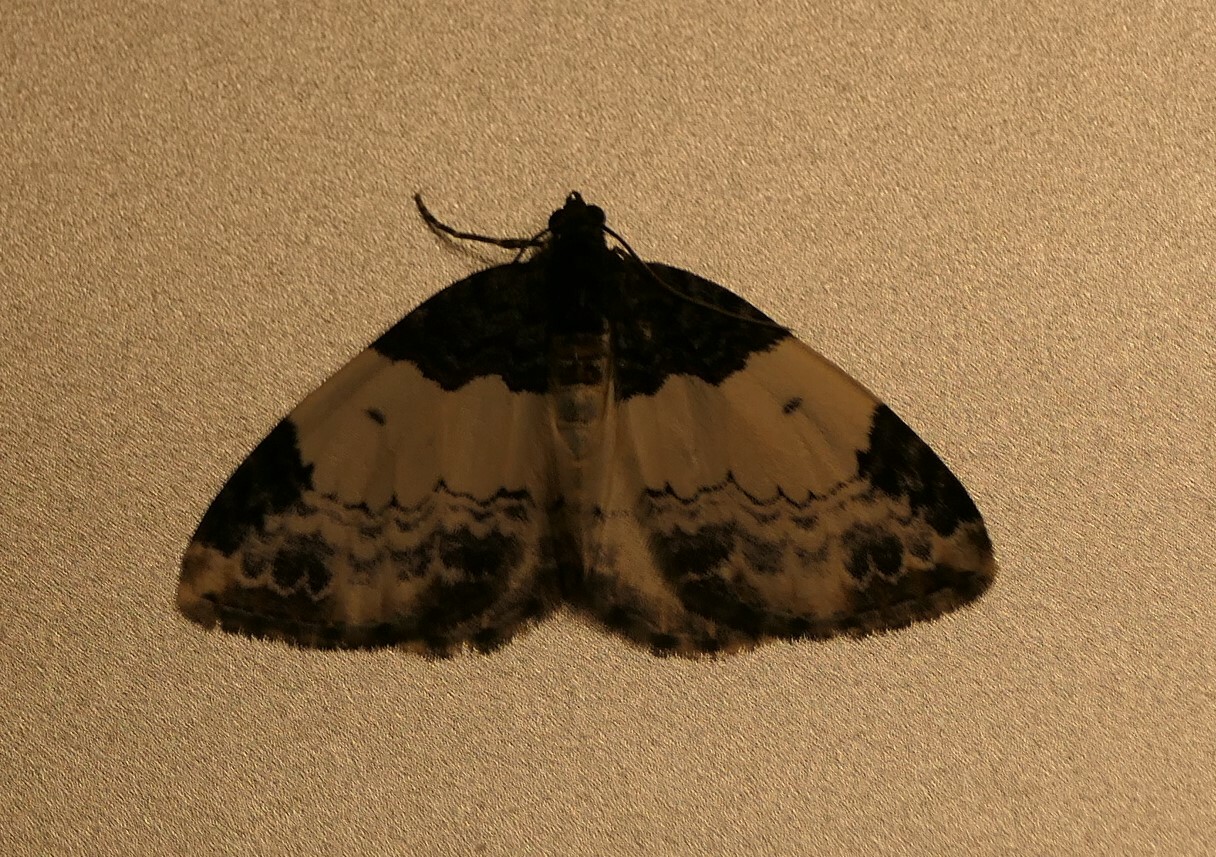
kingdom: Animalia
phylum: Arthropoda
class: Insecta
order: Lepidoptera
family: Geometridae
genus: Mesoleuca
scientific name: Mesoleuca ruficillata
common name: White-ribboned carpet moth
